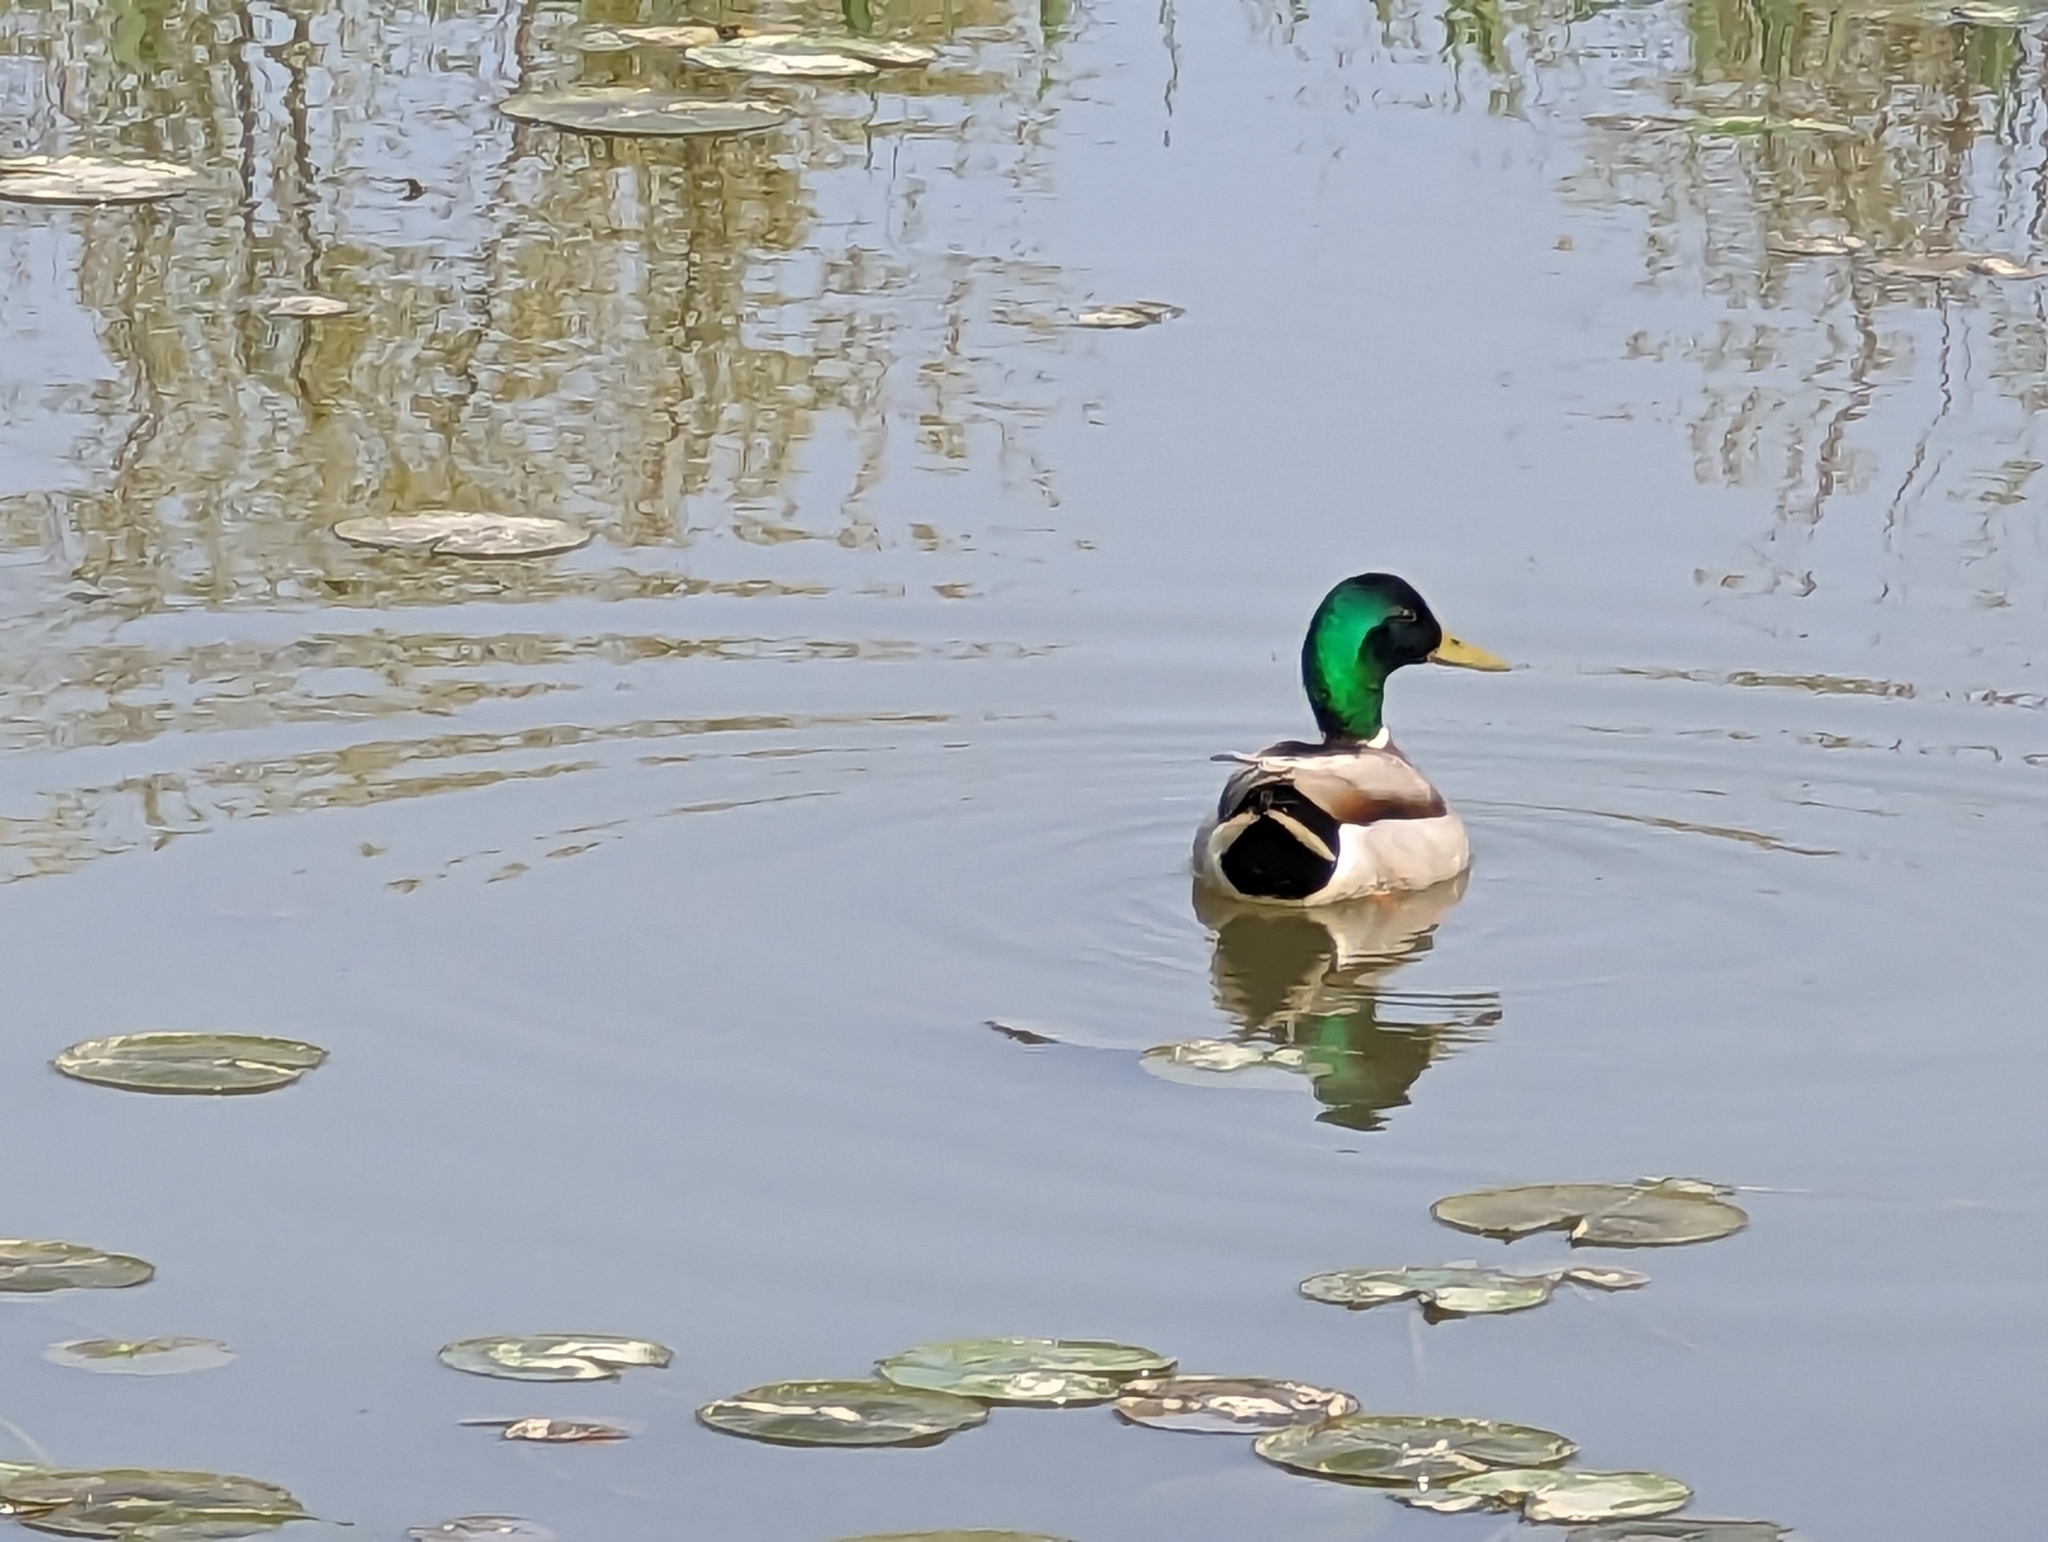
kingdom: Animalia
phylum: Chordata
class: Aves
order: Anseriformes
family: Anatidae
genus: Anas
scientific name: Anas platyrhynchos
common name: Mallard
